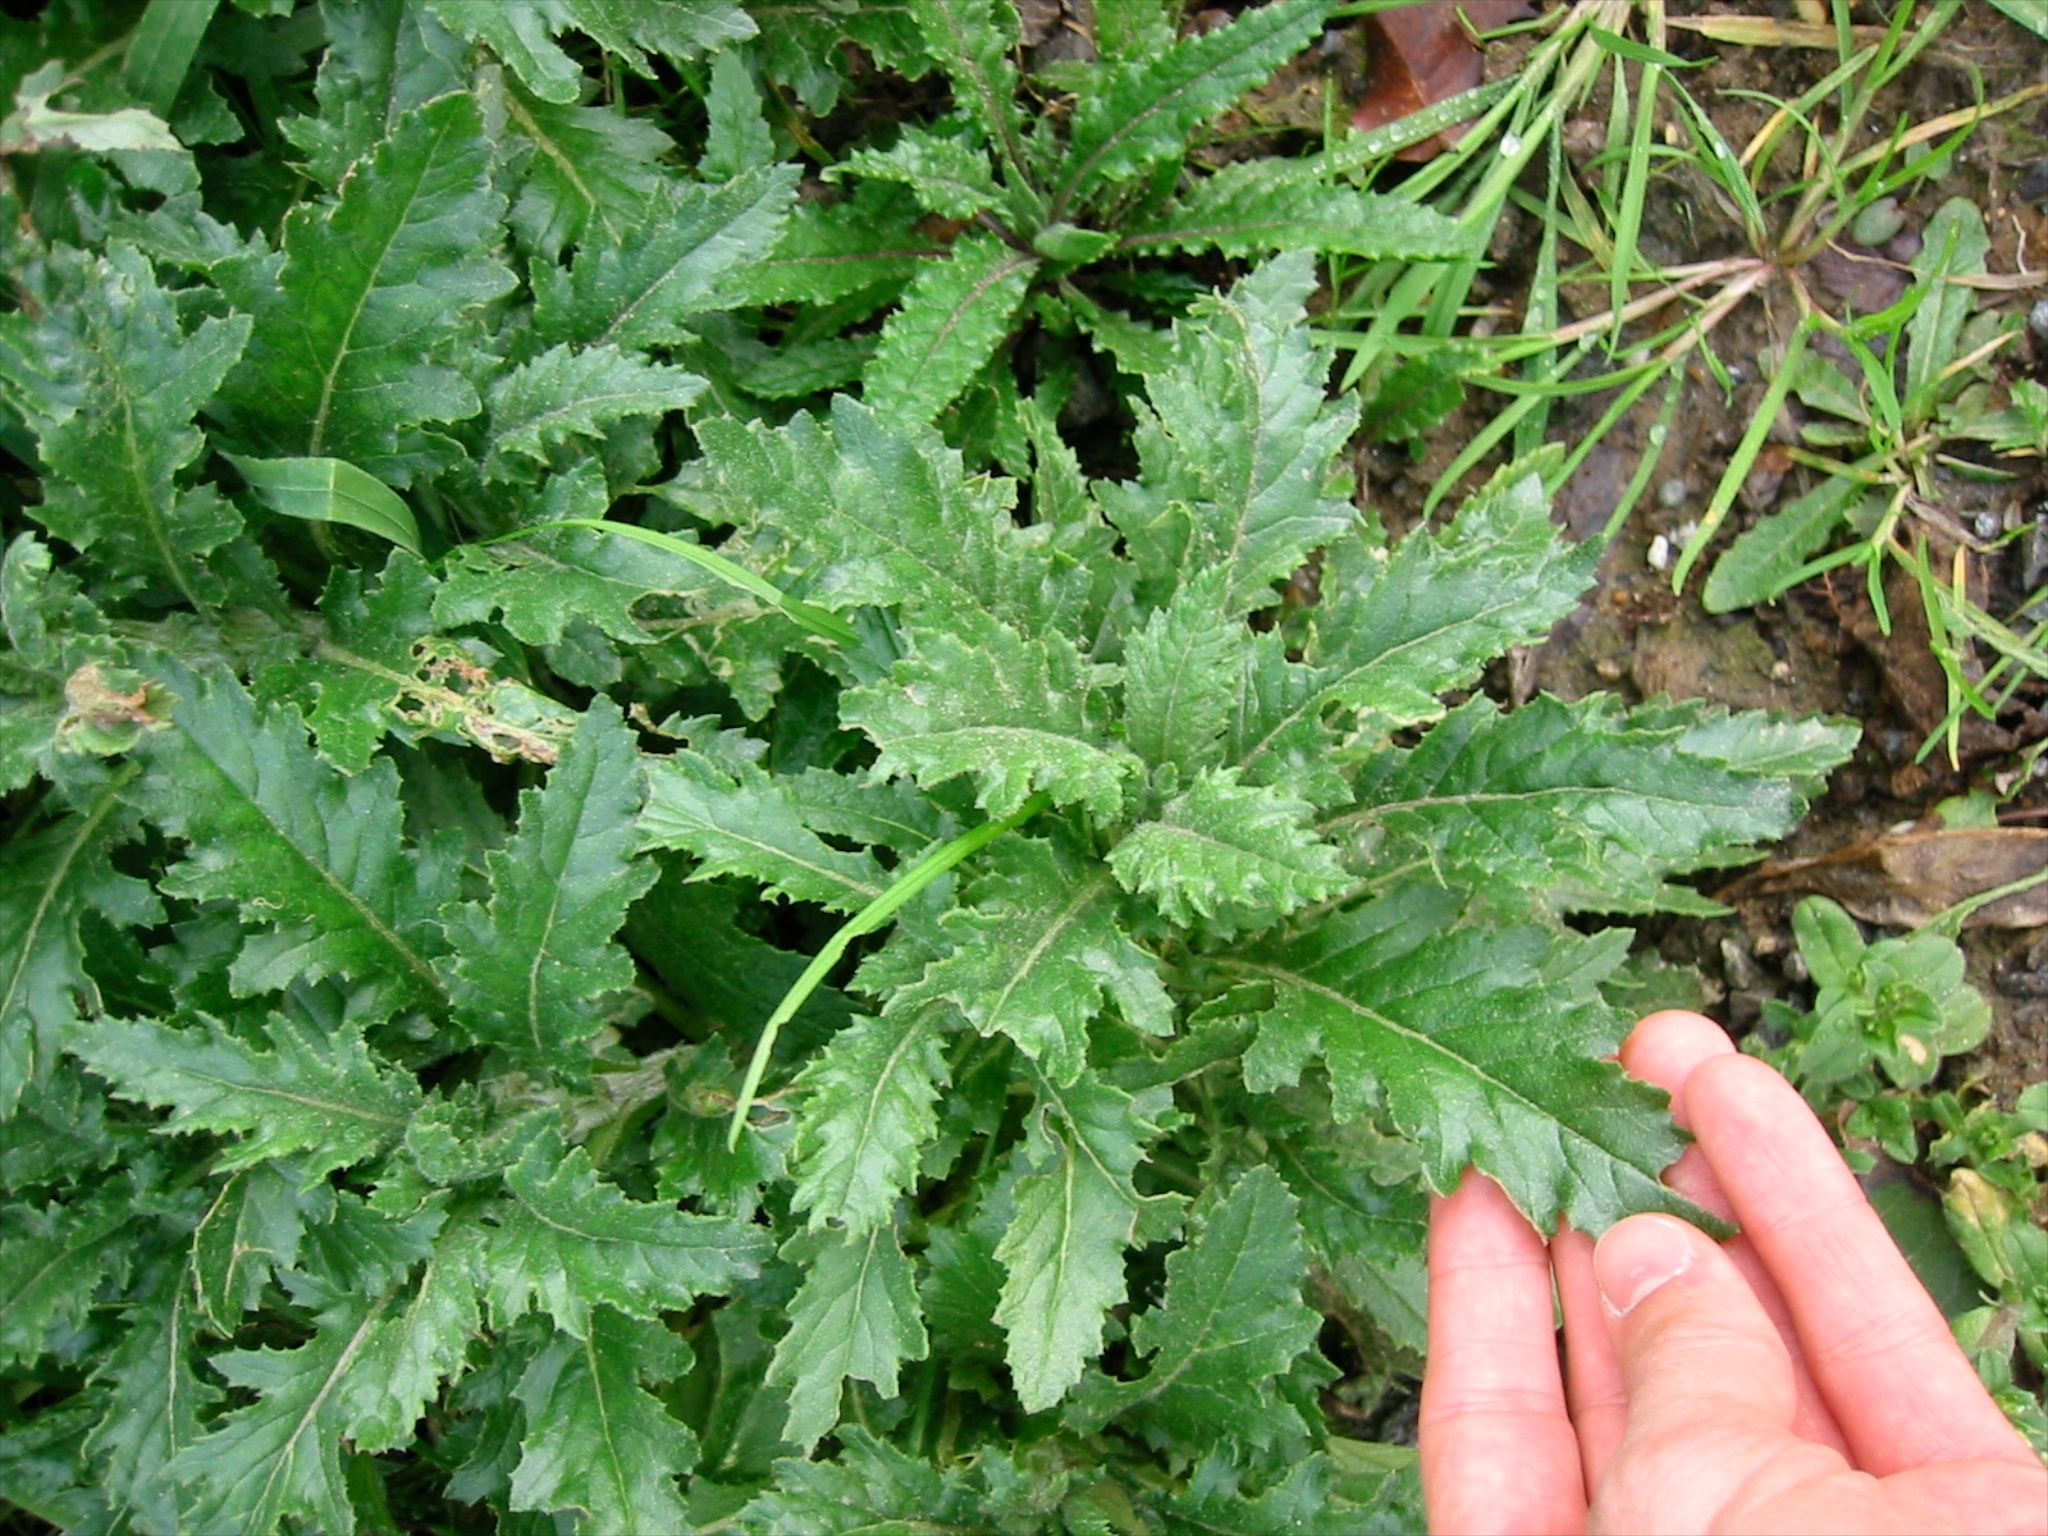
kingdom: Plantae
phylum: Tracheophyta
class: Magnoliopsida
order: Asterales
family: Asteraceae
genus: Senecio
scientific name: Senecio biserratus
